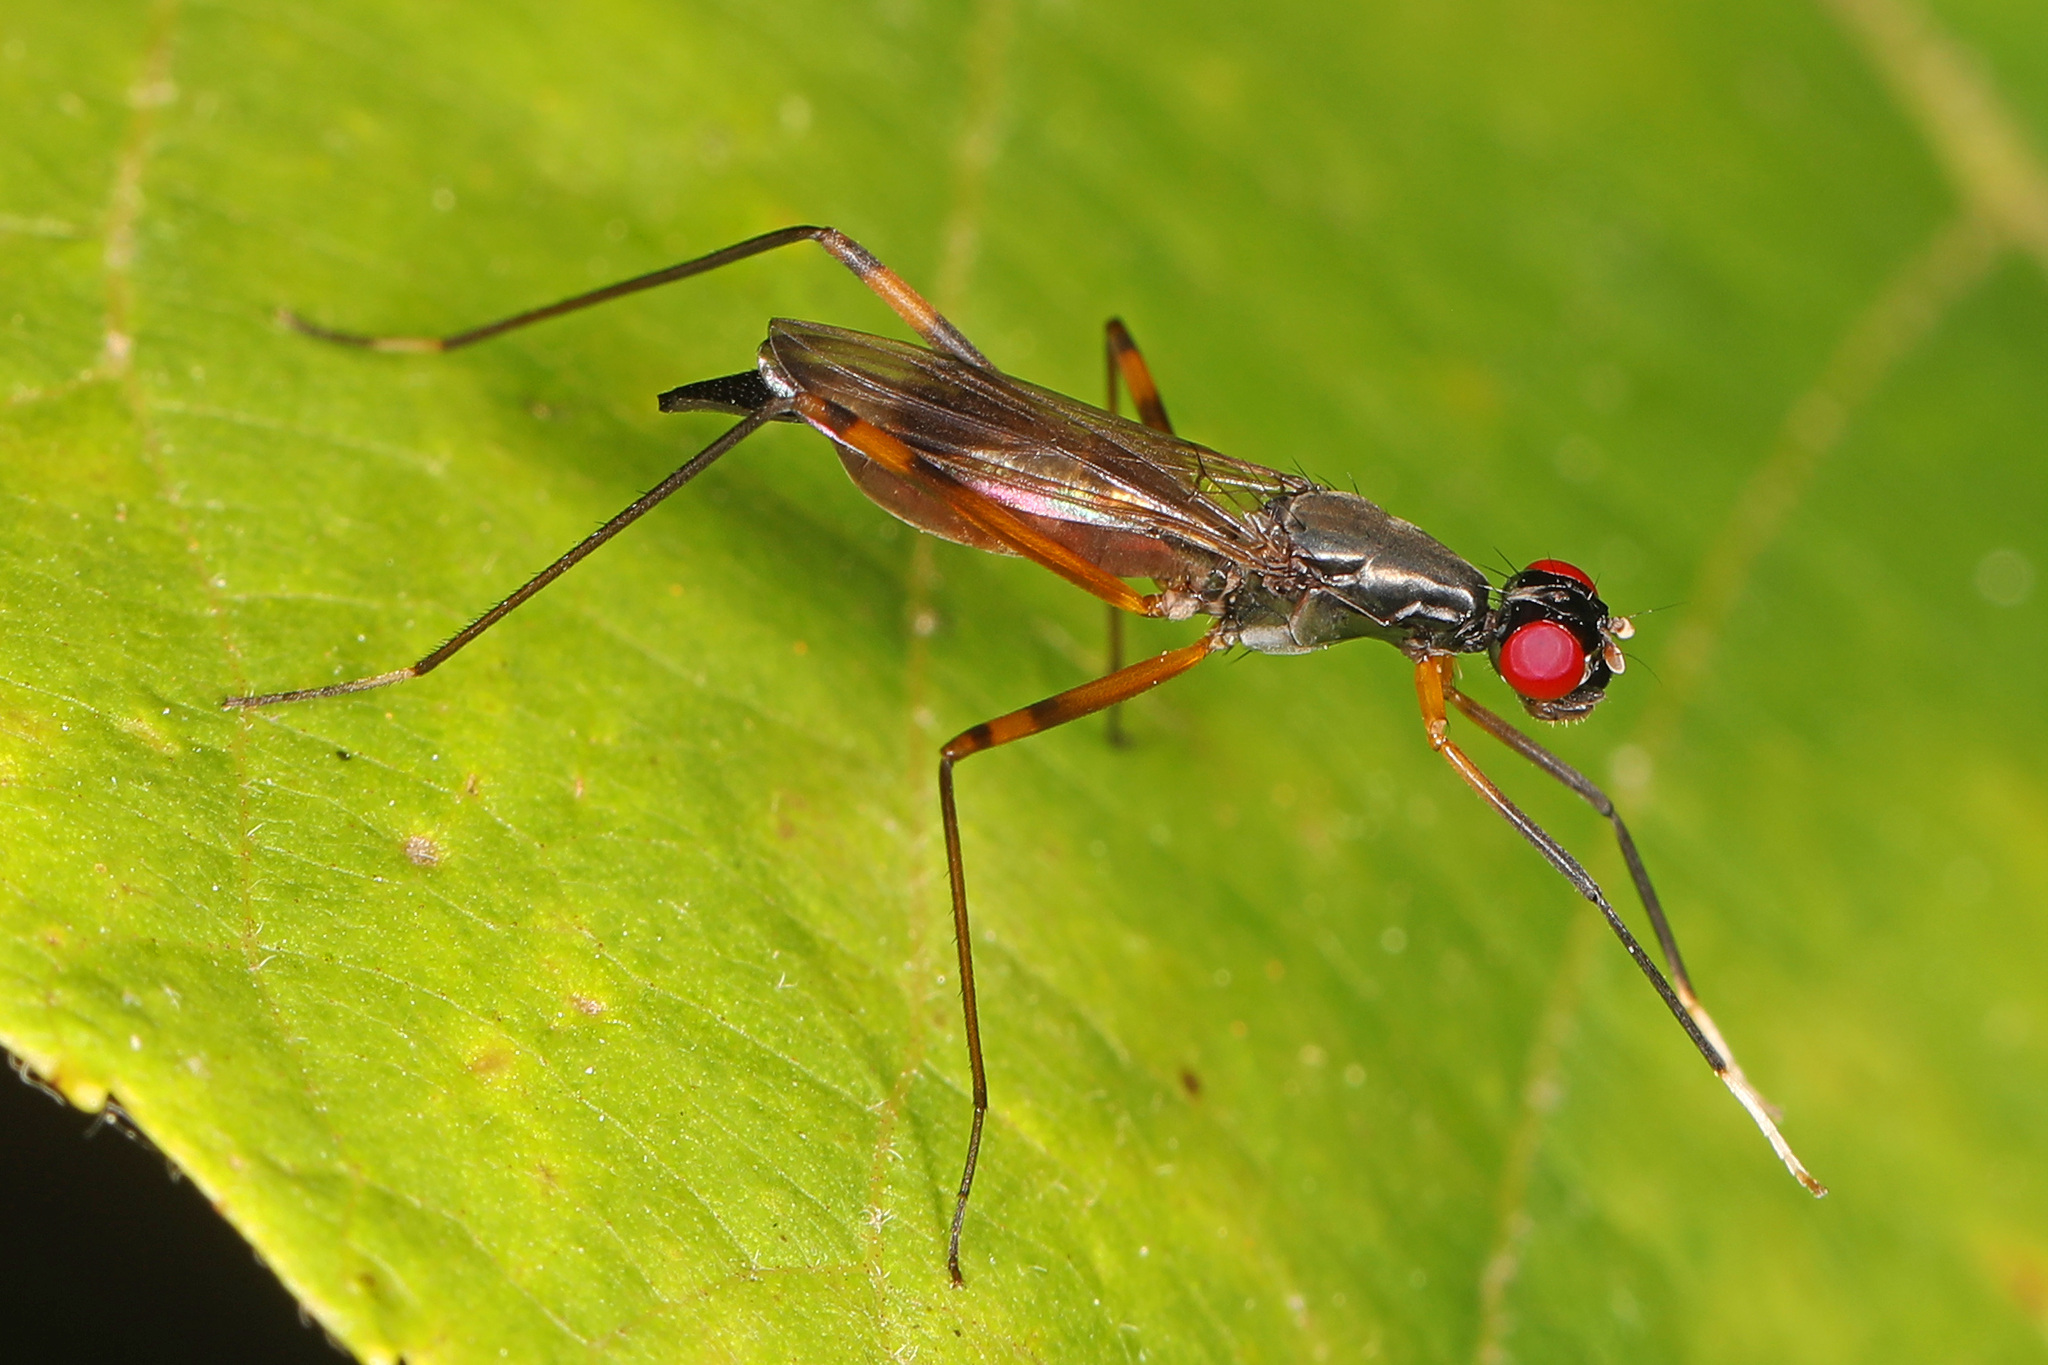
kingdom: Animalia
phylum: Arthropoda
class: Insecta
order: Diptera
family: Micropezidae
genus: Rainieria
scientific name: Rainieria antennaepes
